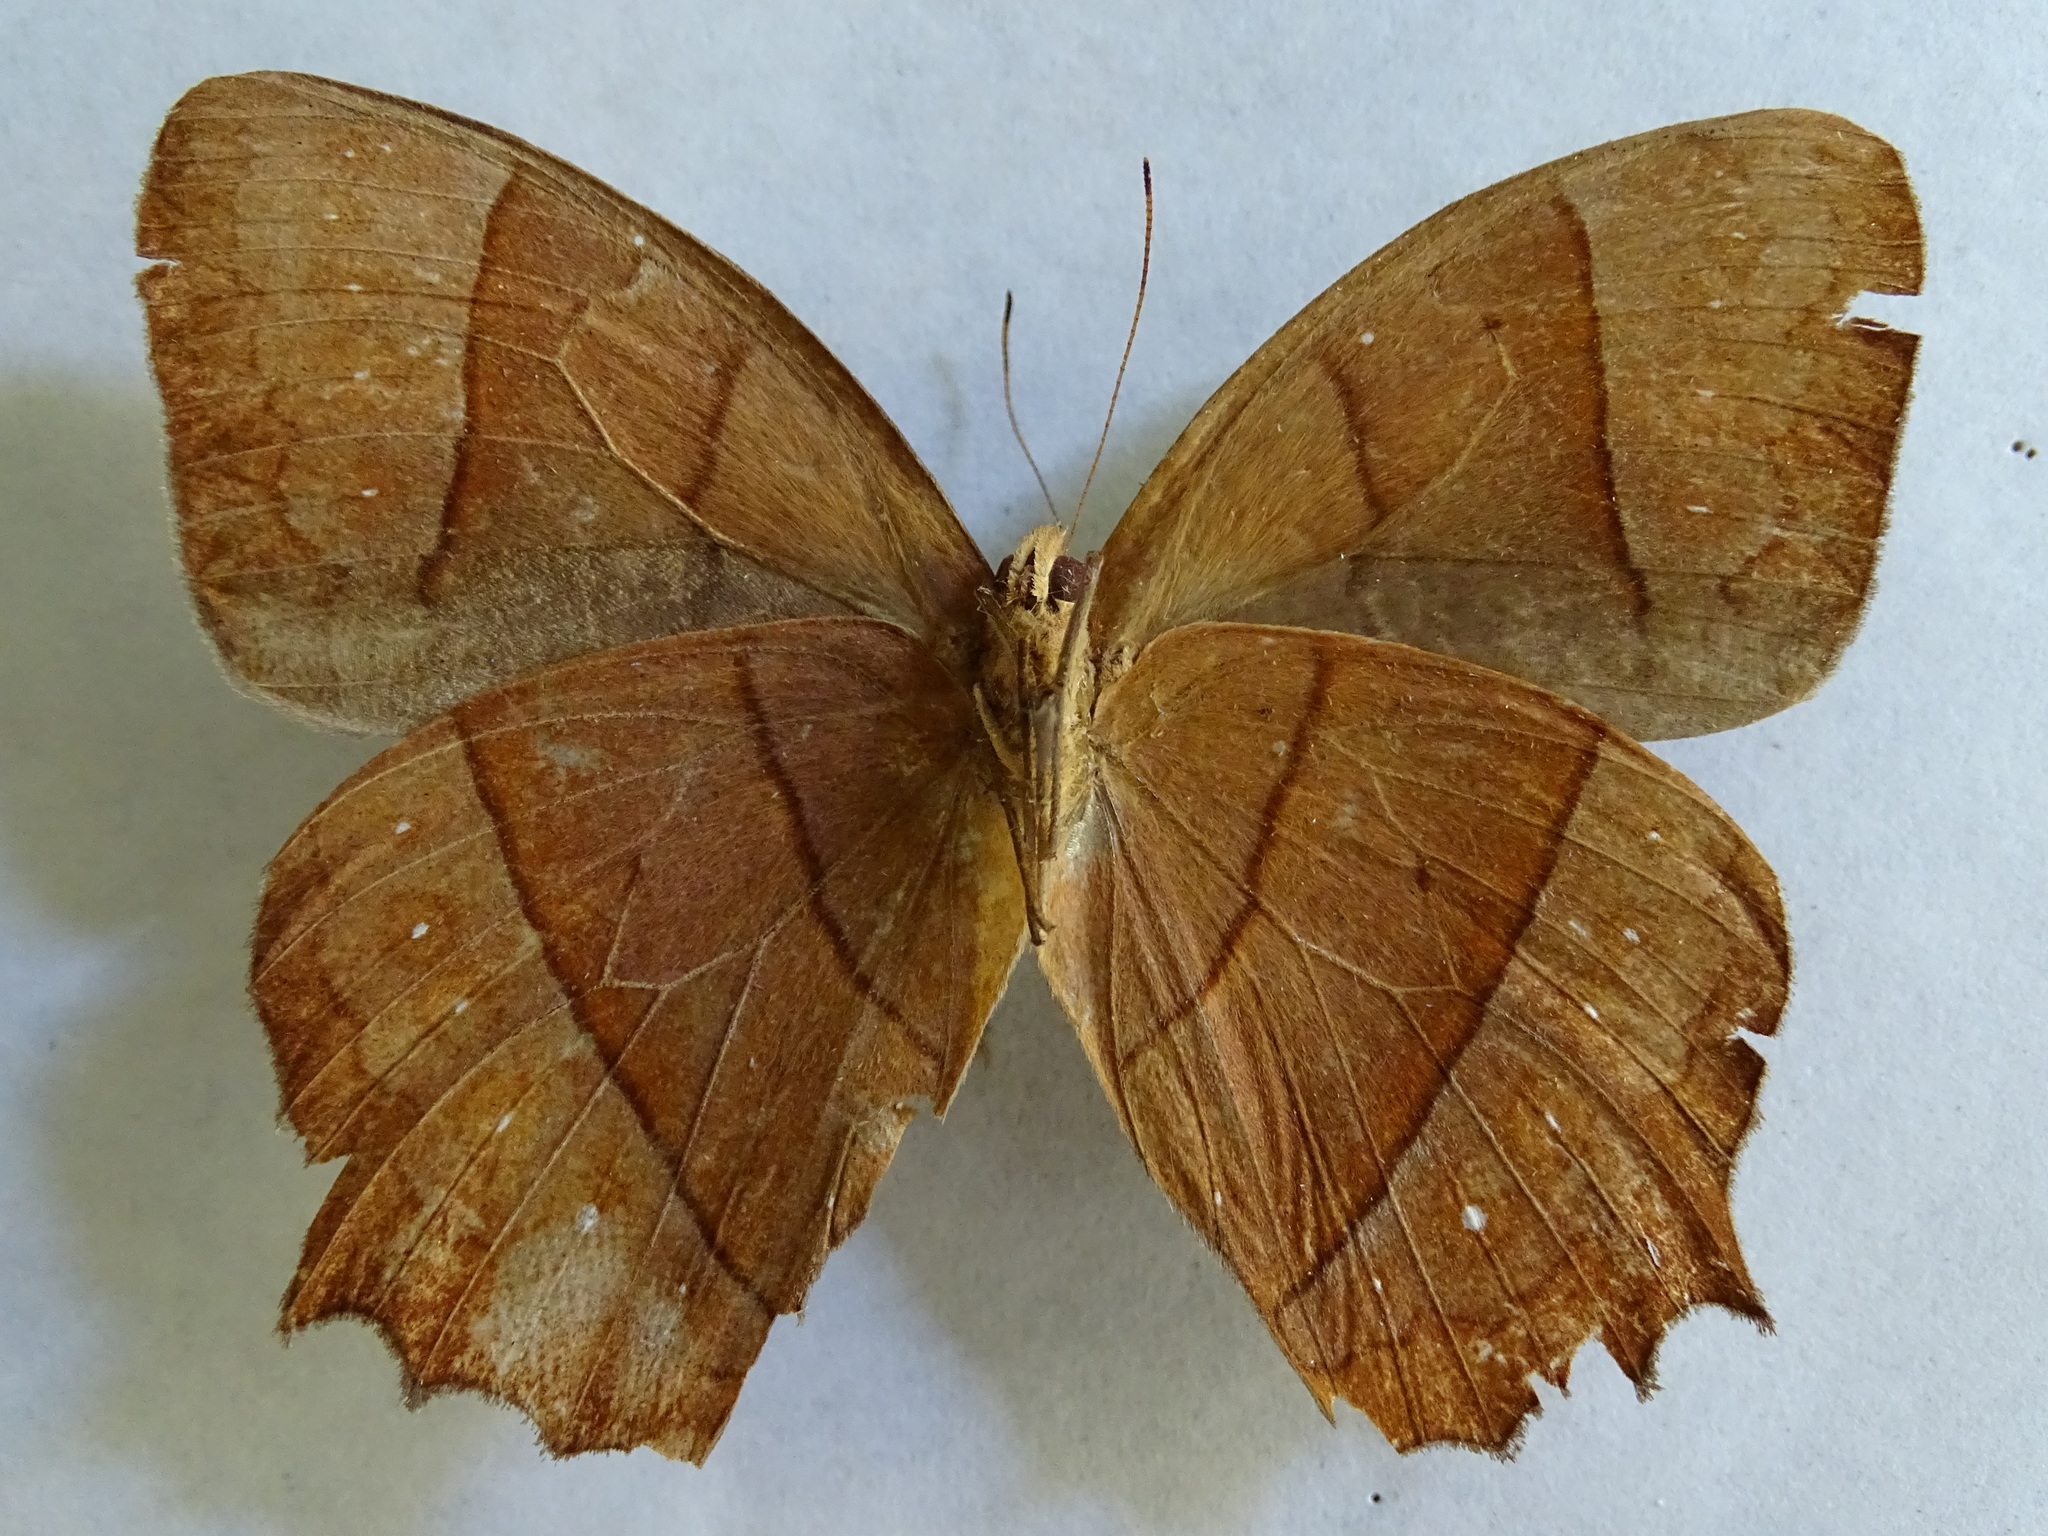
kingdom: Animalia
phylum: Arthropoda
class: Insecta
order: Lepidoptera
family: Nymphalidae
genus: Taygetis
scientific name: Taygetis virgilia
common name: Stub-tailed satyr
